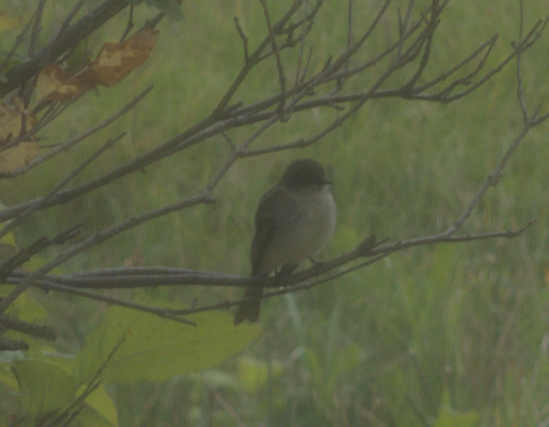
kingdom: Animalia
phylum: Chordata
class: Aves
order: Passeriformes
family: Tyrannidae
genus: Sayornis
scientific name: Sayornis phoebe
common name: Eastern phoebe
